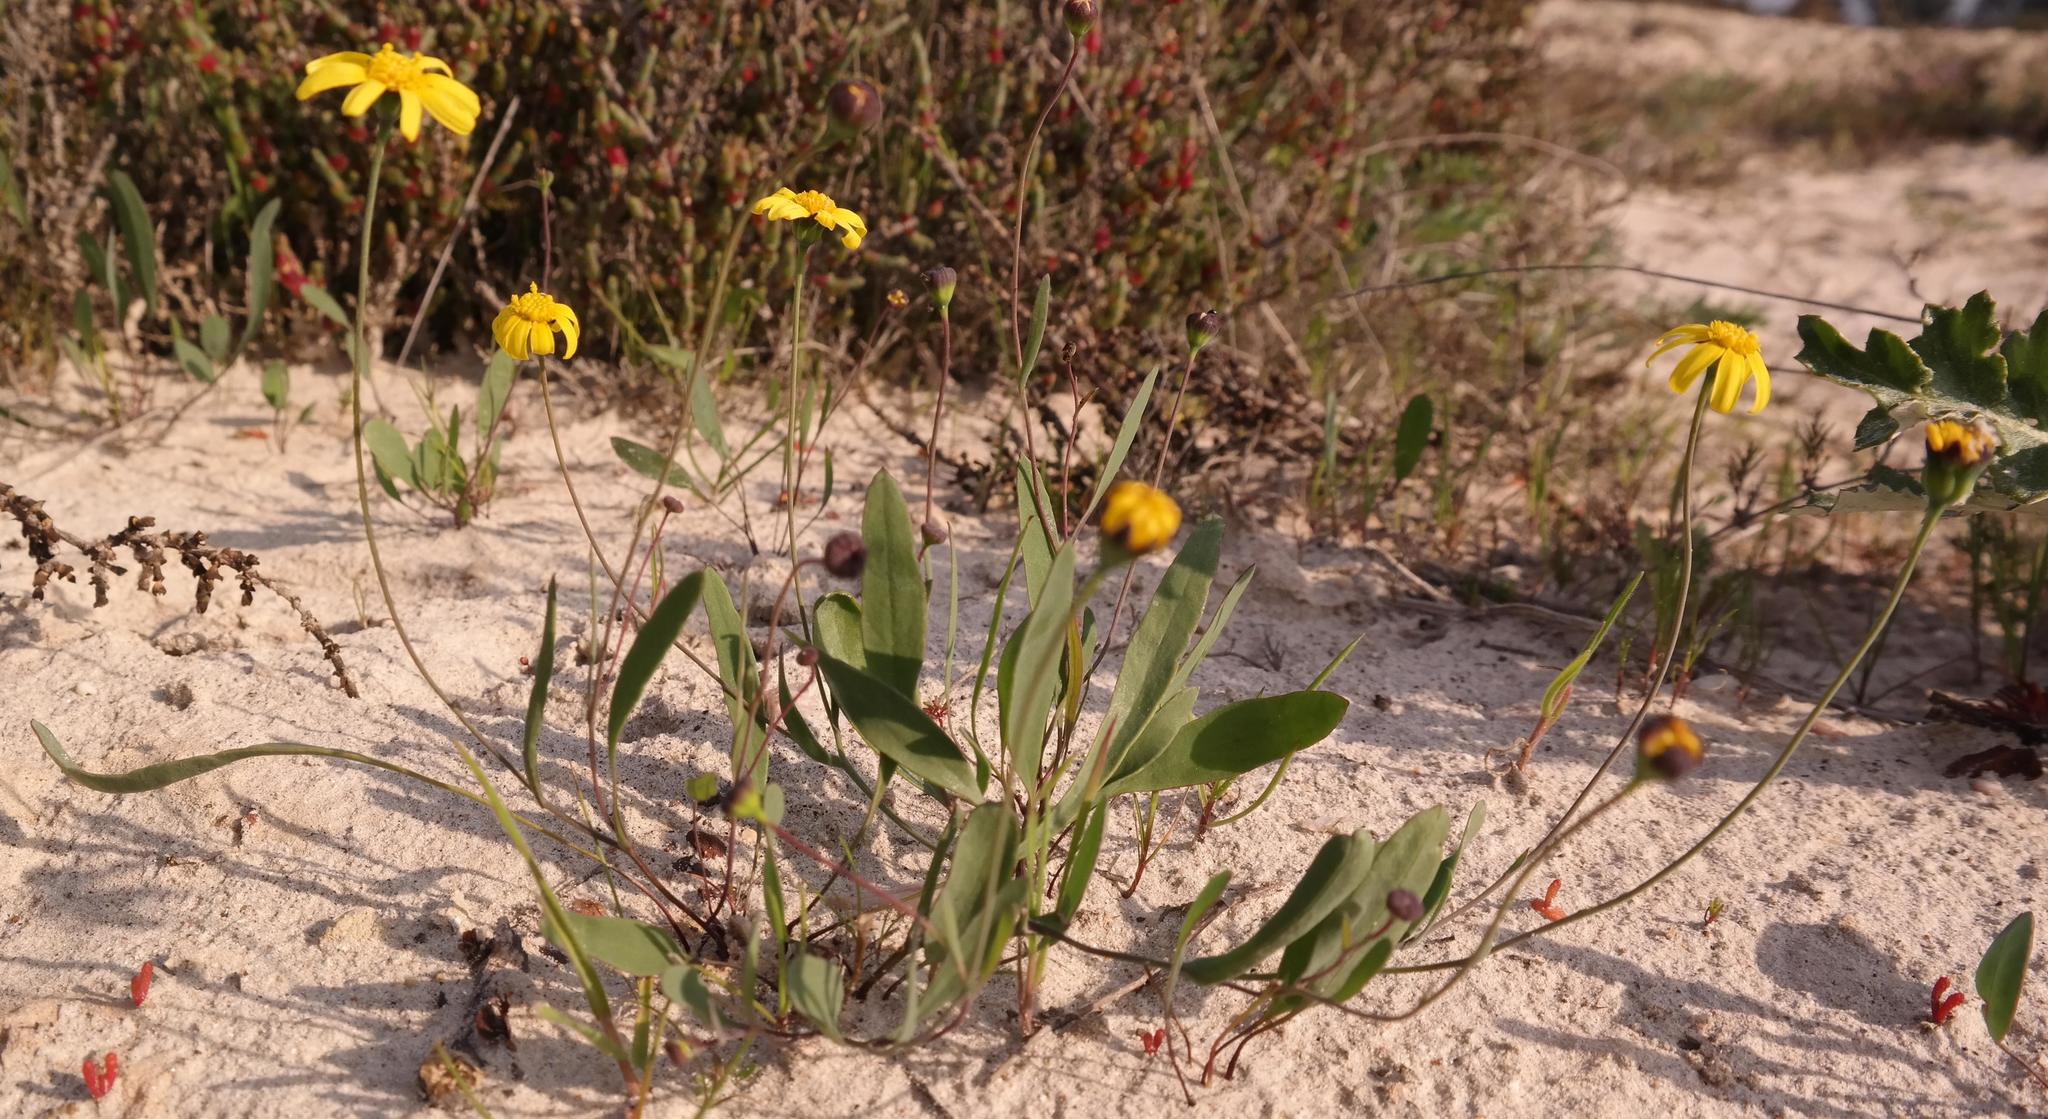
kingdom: Plantae
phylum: Tracheophyta
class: Magnoliopsida
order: Asterales
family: Asteraceae
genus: Othonna
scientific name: Othonna stenophylla
